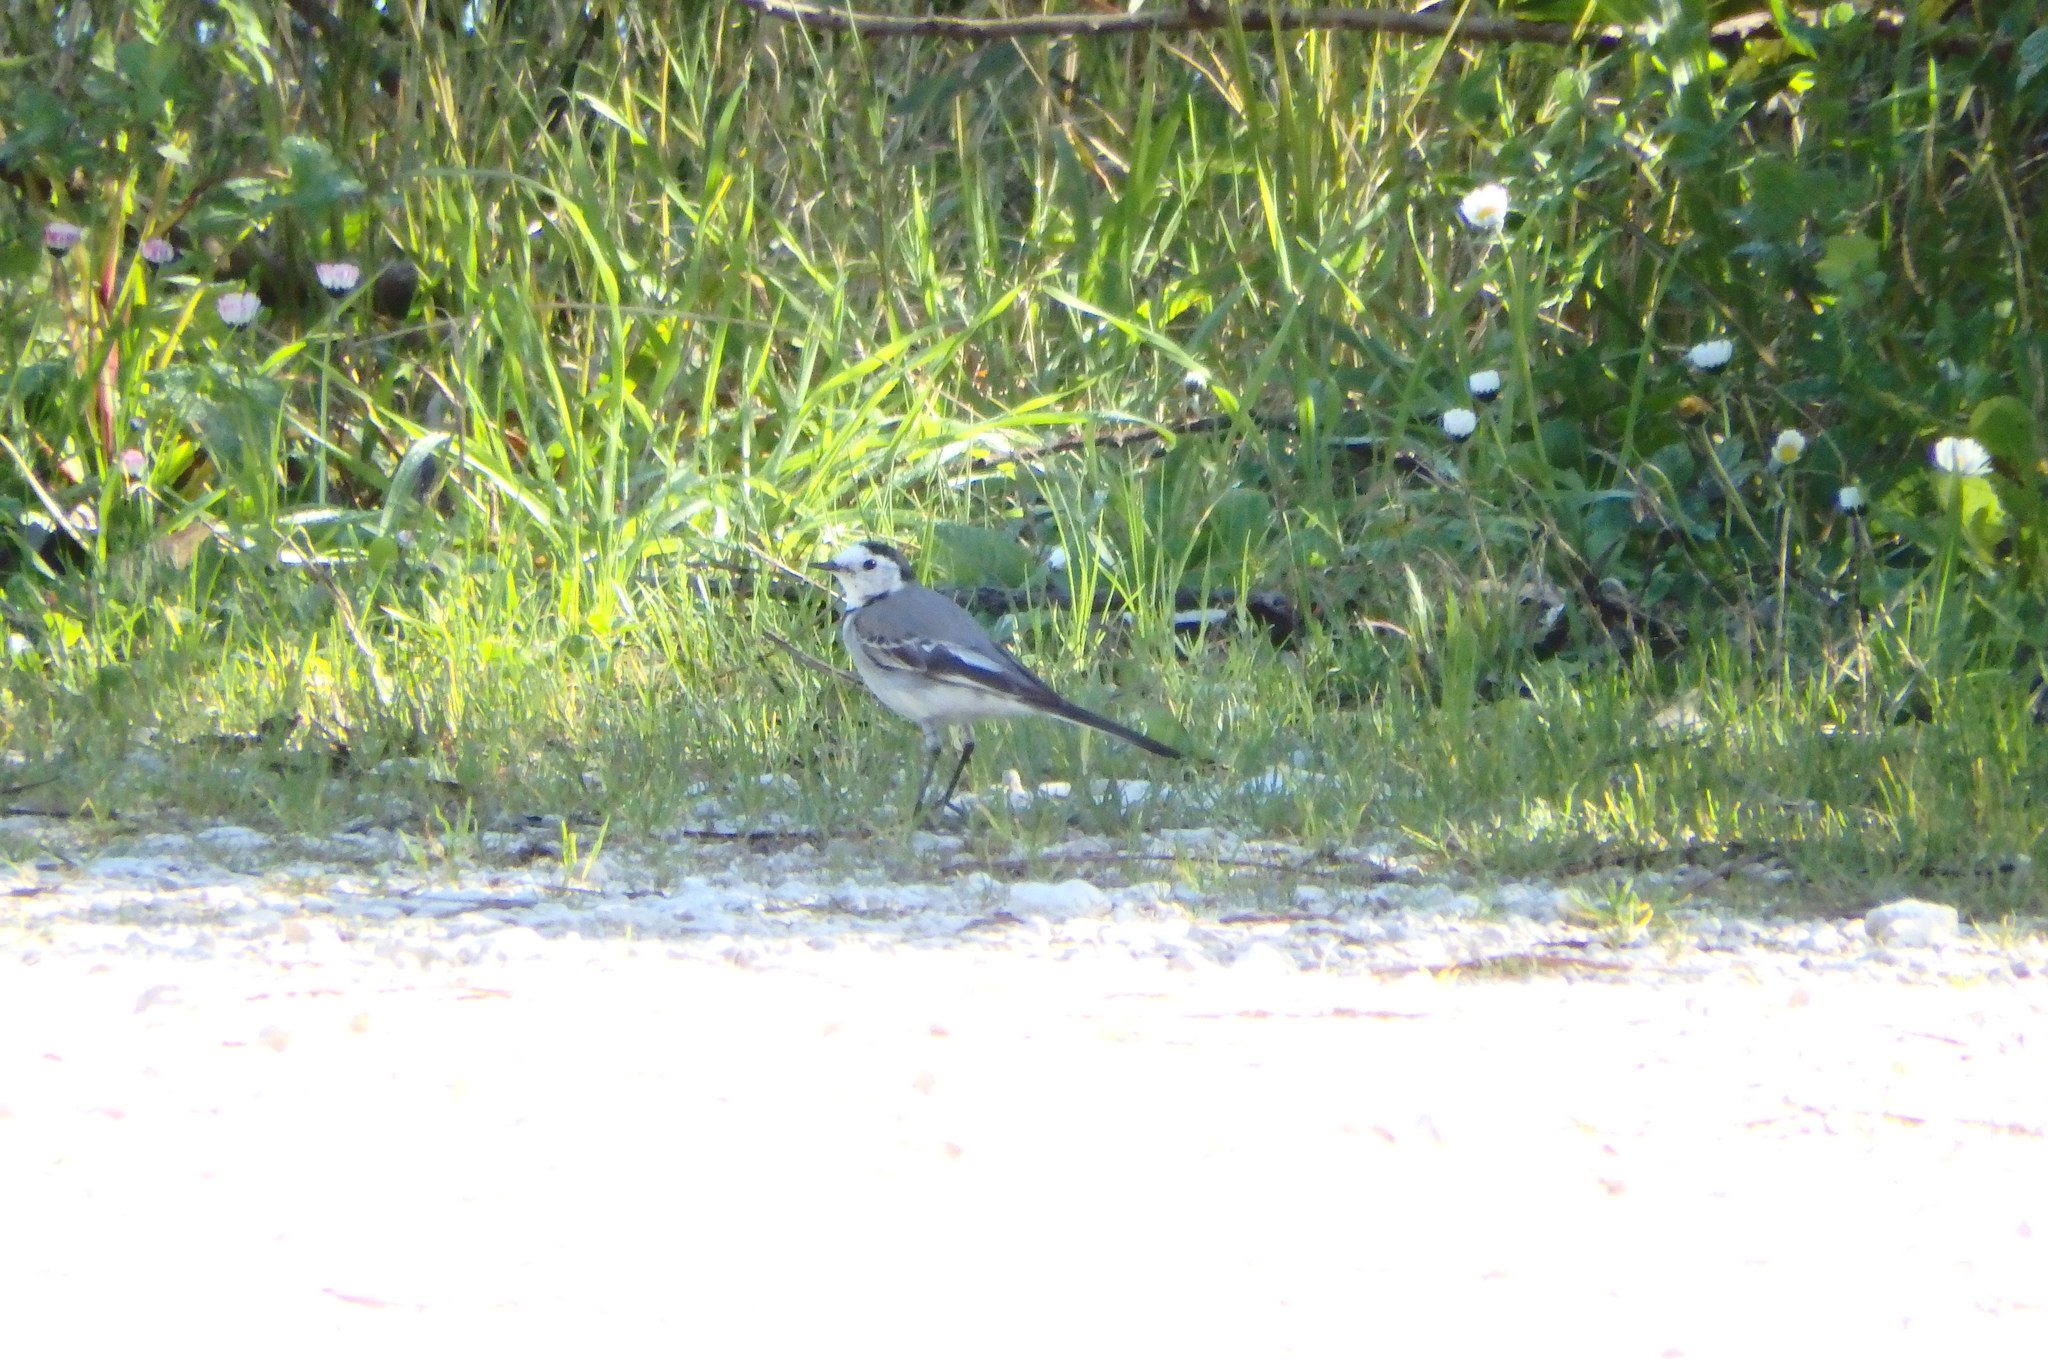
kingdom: Animalia
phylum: Chordata
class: Aves
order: Passeriformes
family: Motacillidae
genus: Motacilla
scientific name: Motacilla alba
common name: White wagtail
